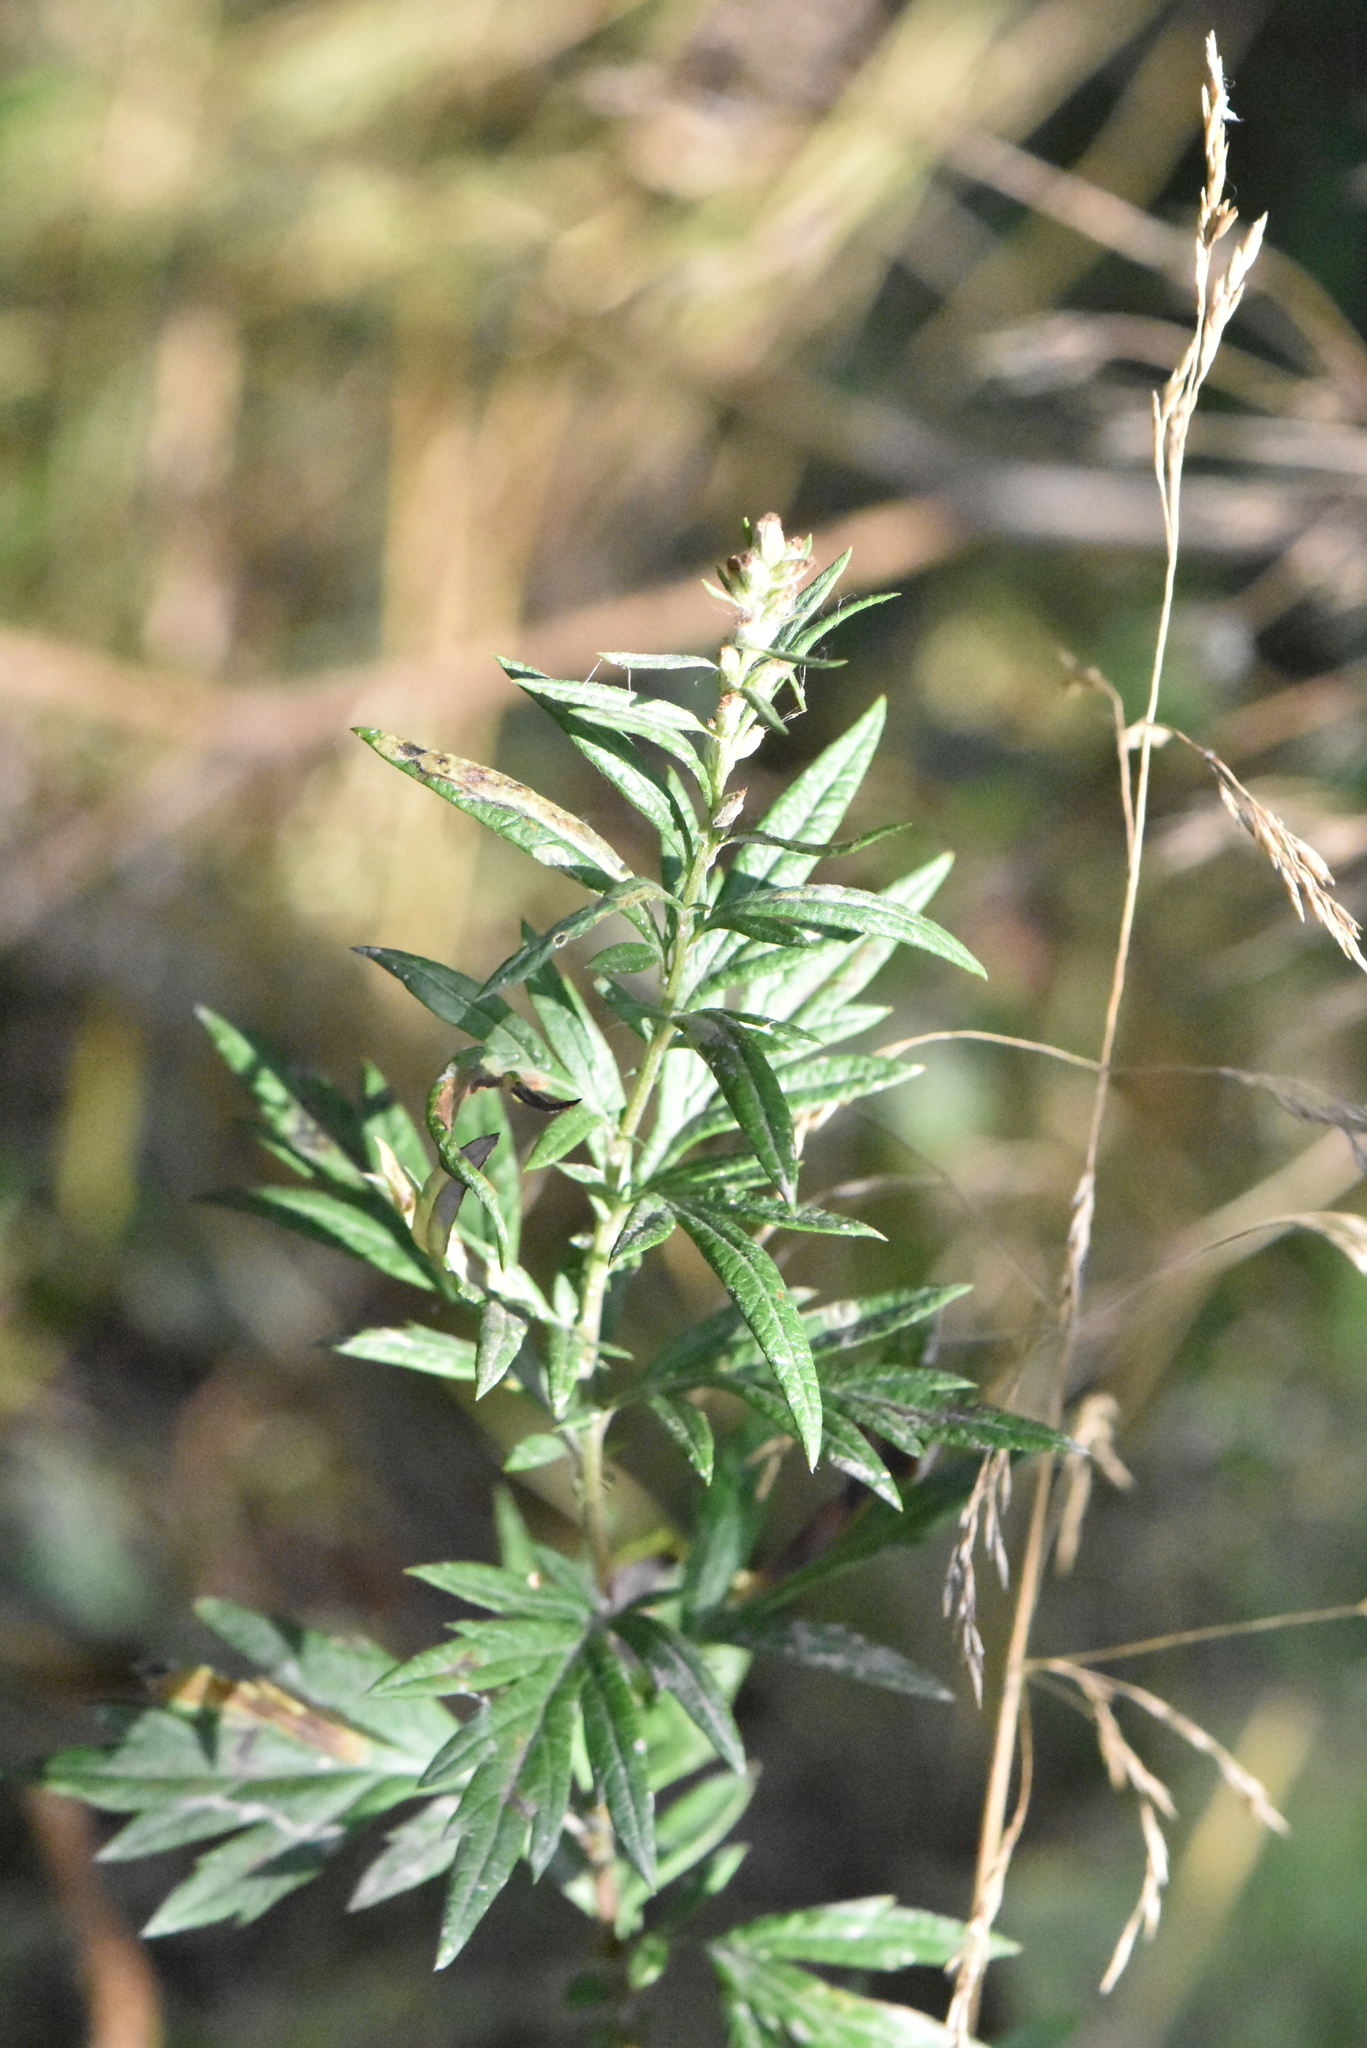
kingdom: Plantae
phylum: Tracheophyta
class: Magnoliopsida
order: Asterales
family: Asteraceae
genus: Artemisia
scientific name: Artemisia vulgaris
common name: Mugwort
